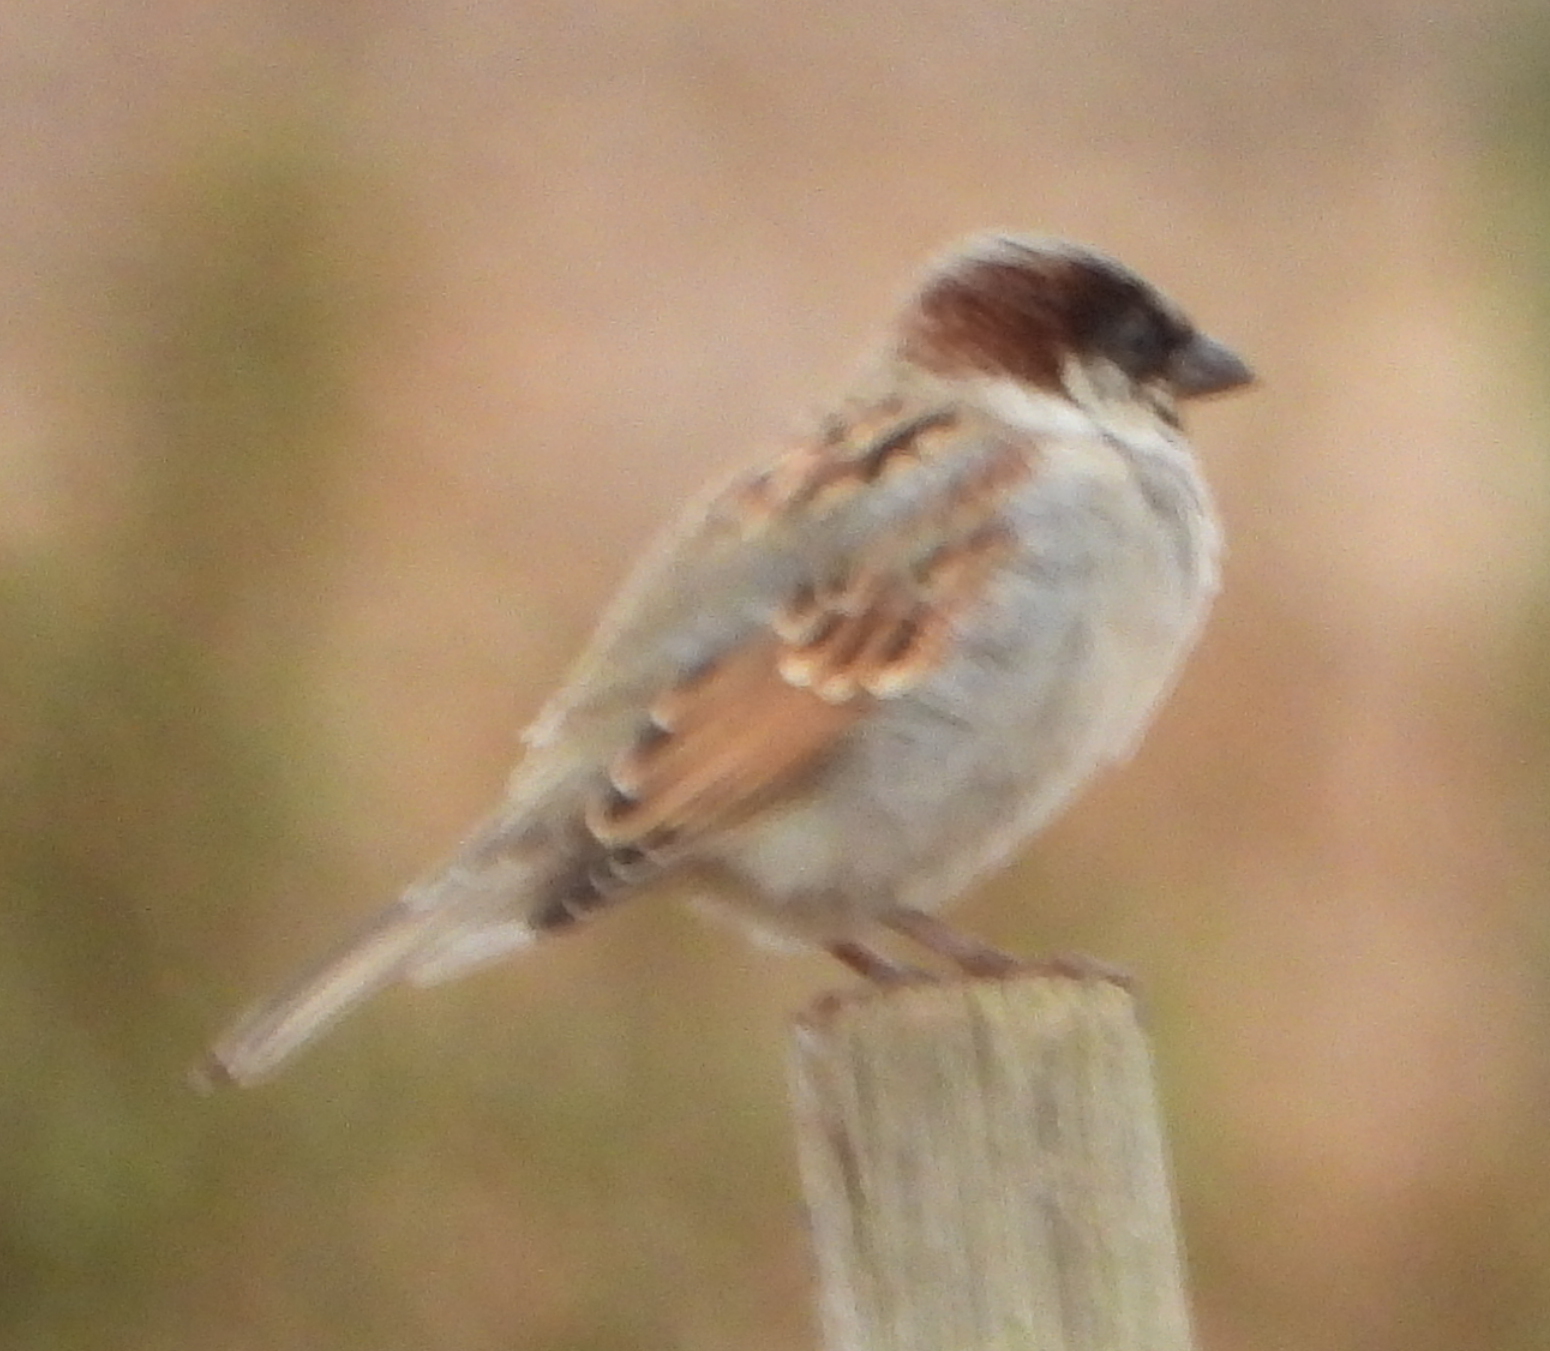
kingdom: Animalia
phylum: Chordata
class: Aves
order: Passeriformes
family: Passeridae
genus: Passer
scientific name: Passer domesticus
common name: House sparrow
